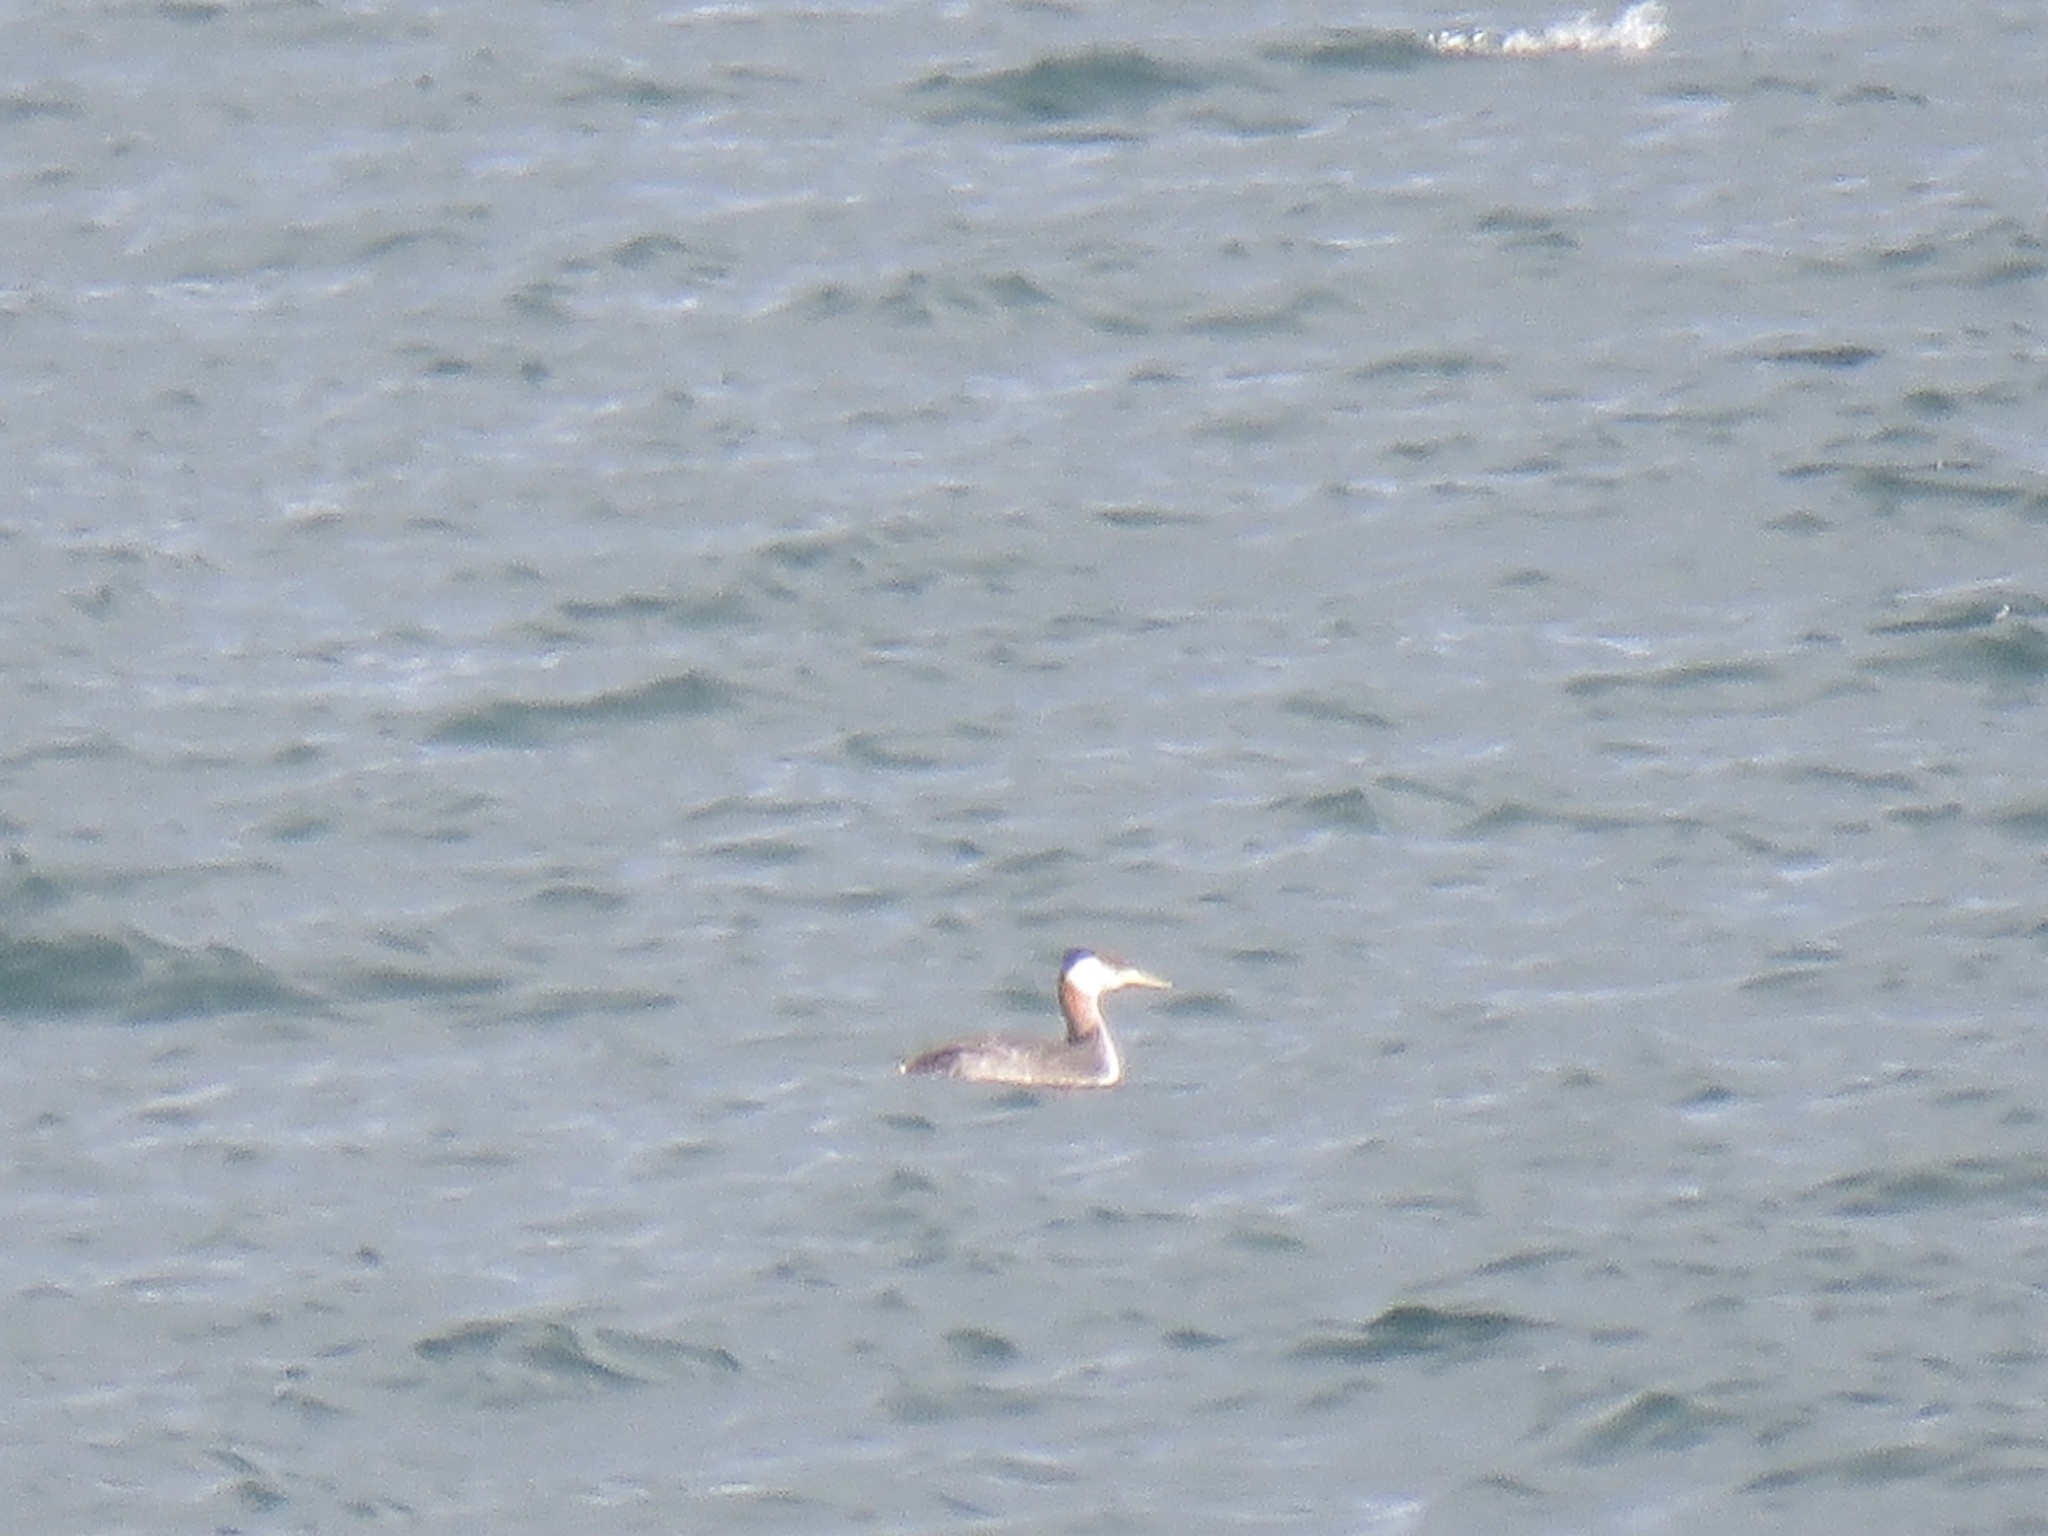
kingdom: Animalia
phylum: Chordata
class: Aves
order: Podicipediformes
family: Podicipedidae
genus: Podiceps
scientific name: Podiceps grisegena
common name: Red-necked grebe
